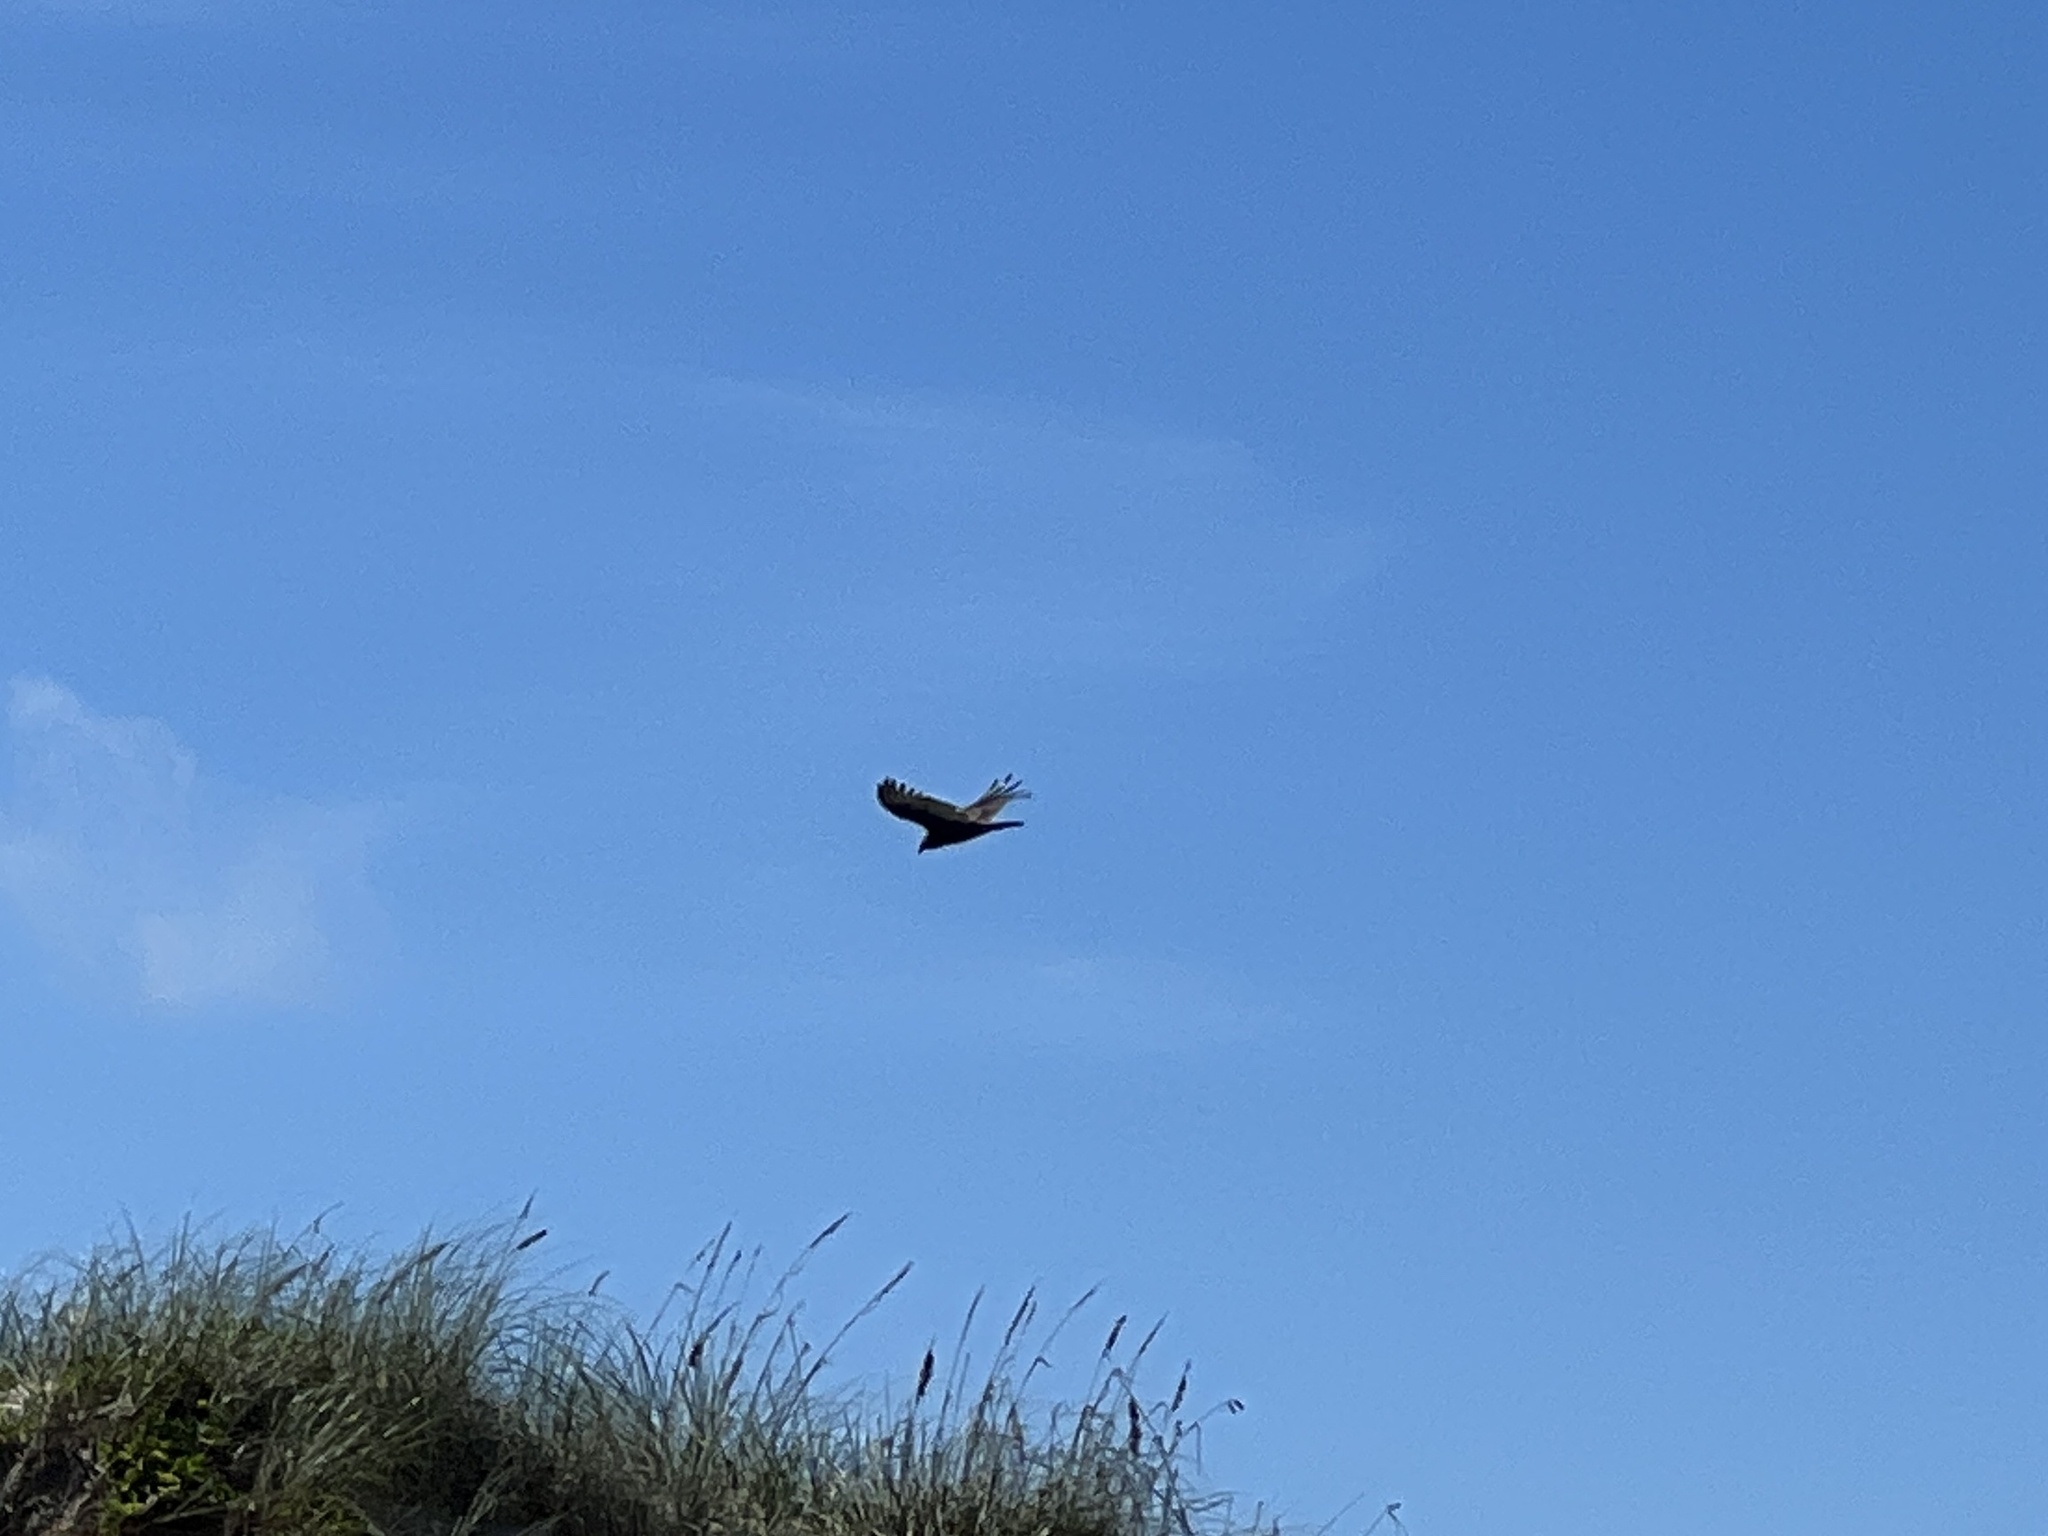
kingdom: Animalia
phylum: Chordata
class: Aves
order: Accipitriformes
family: Cathartidae
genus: Cathartes
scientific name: Cathartes aura
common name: Turkey vulture
